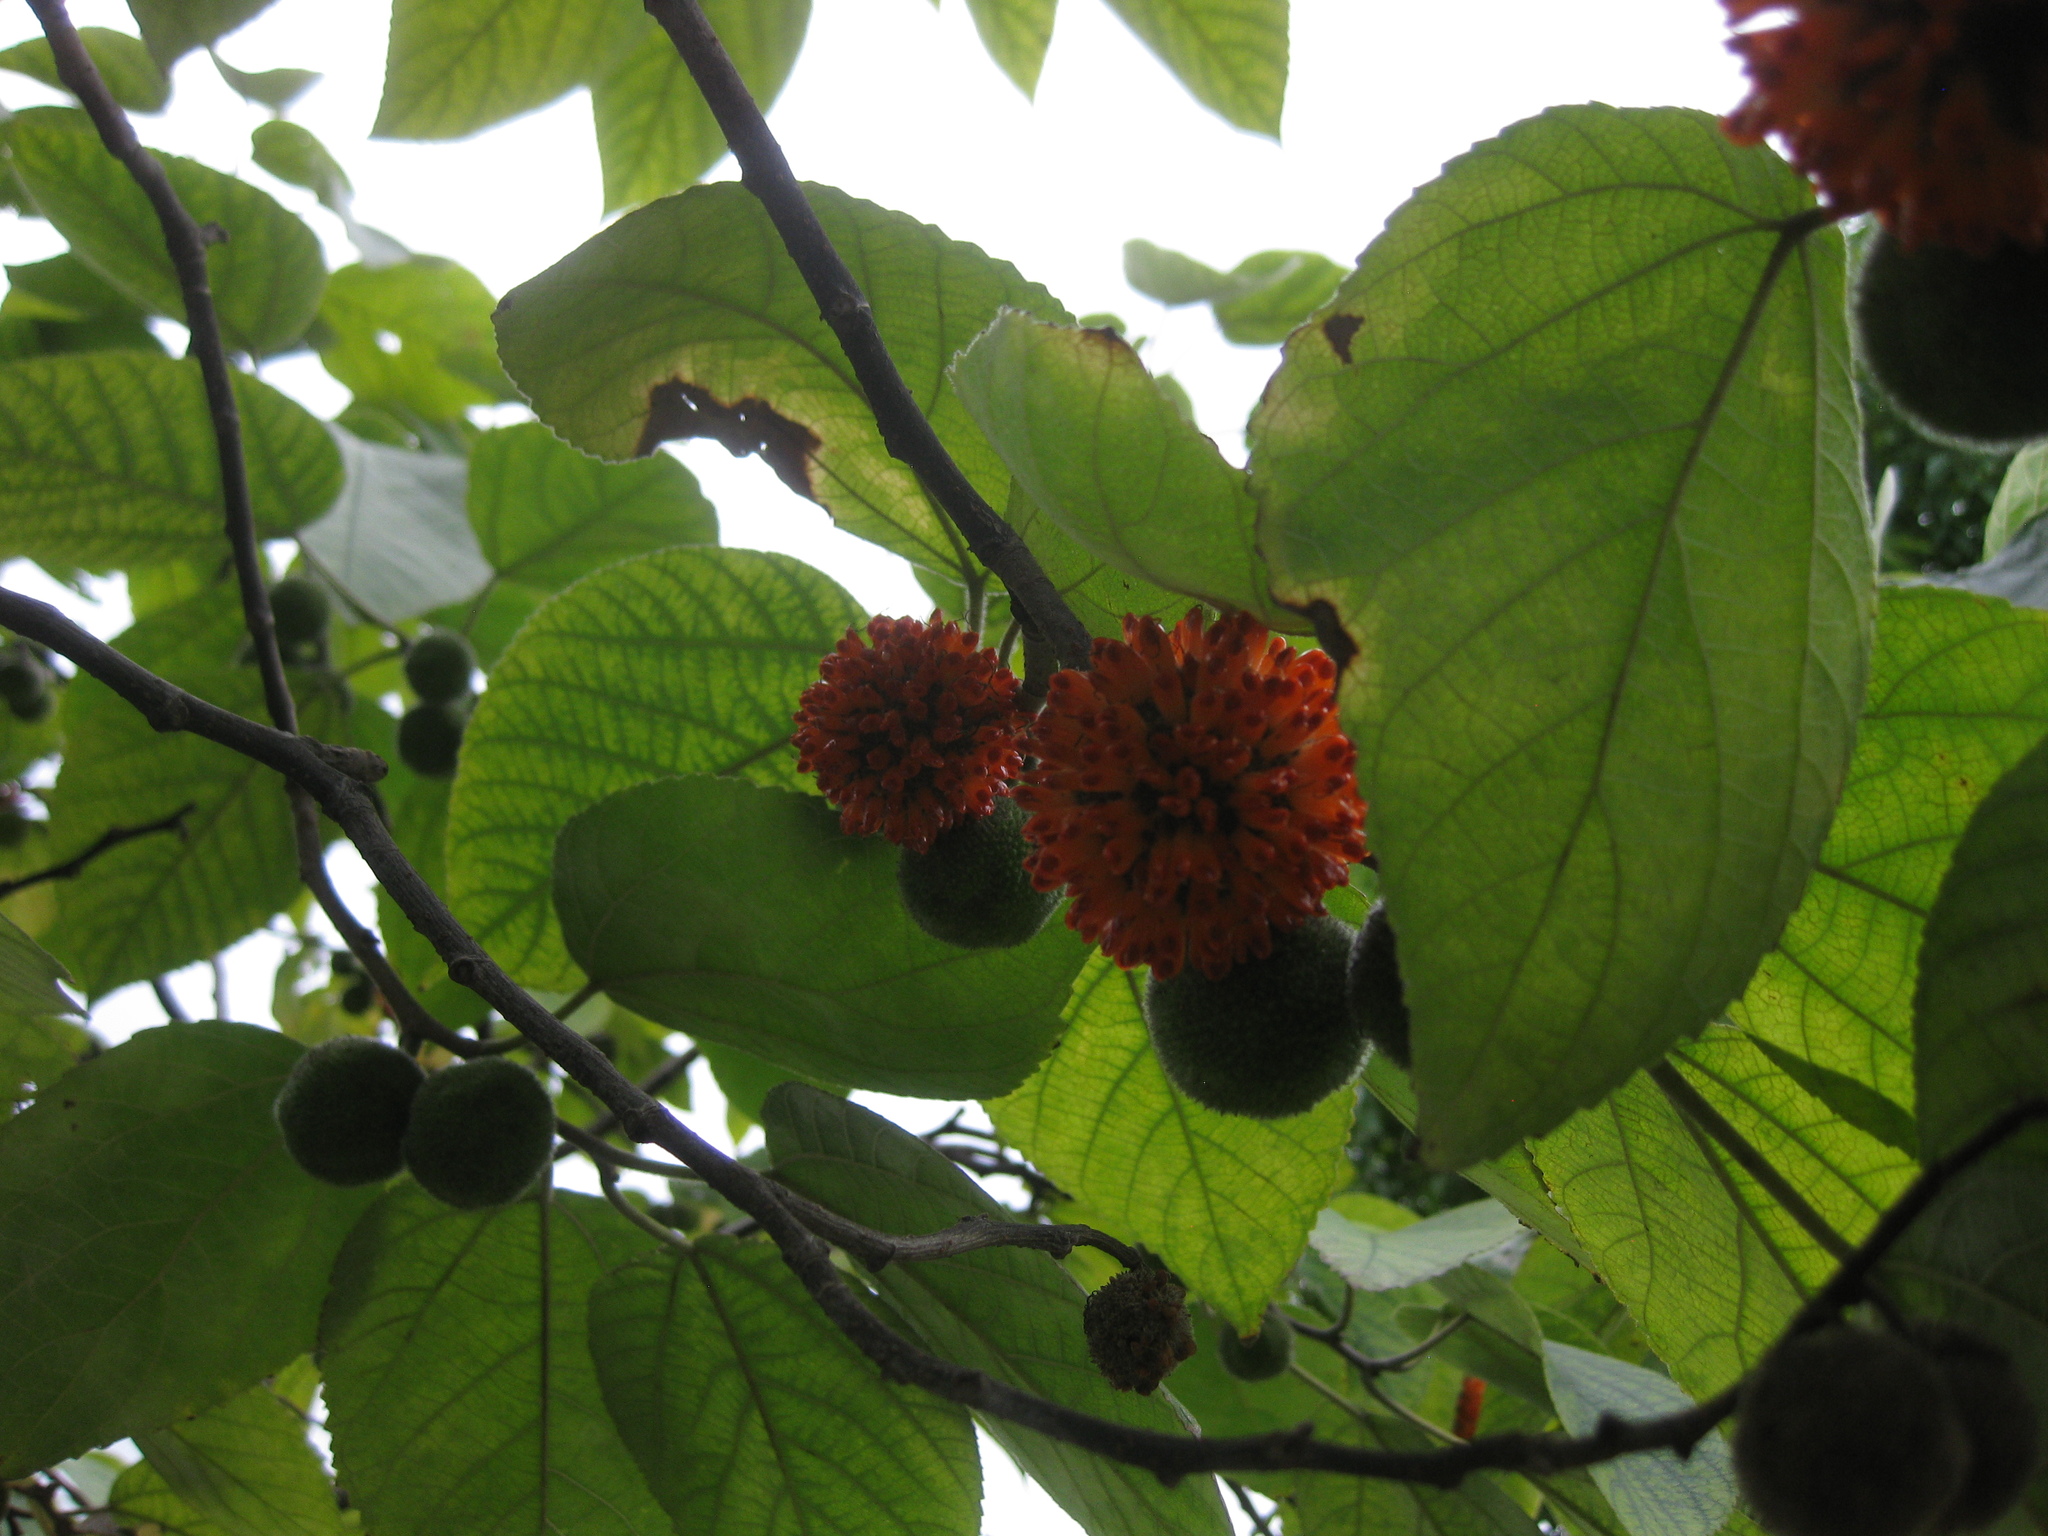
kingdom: Plantae
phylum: Tracheophyta
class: Magnoliopsida
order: Rosales
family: Moraceae
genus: Broussonetia
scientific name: Broussonetia papyrifera
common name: Paper mulberry
